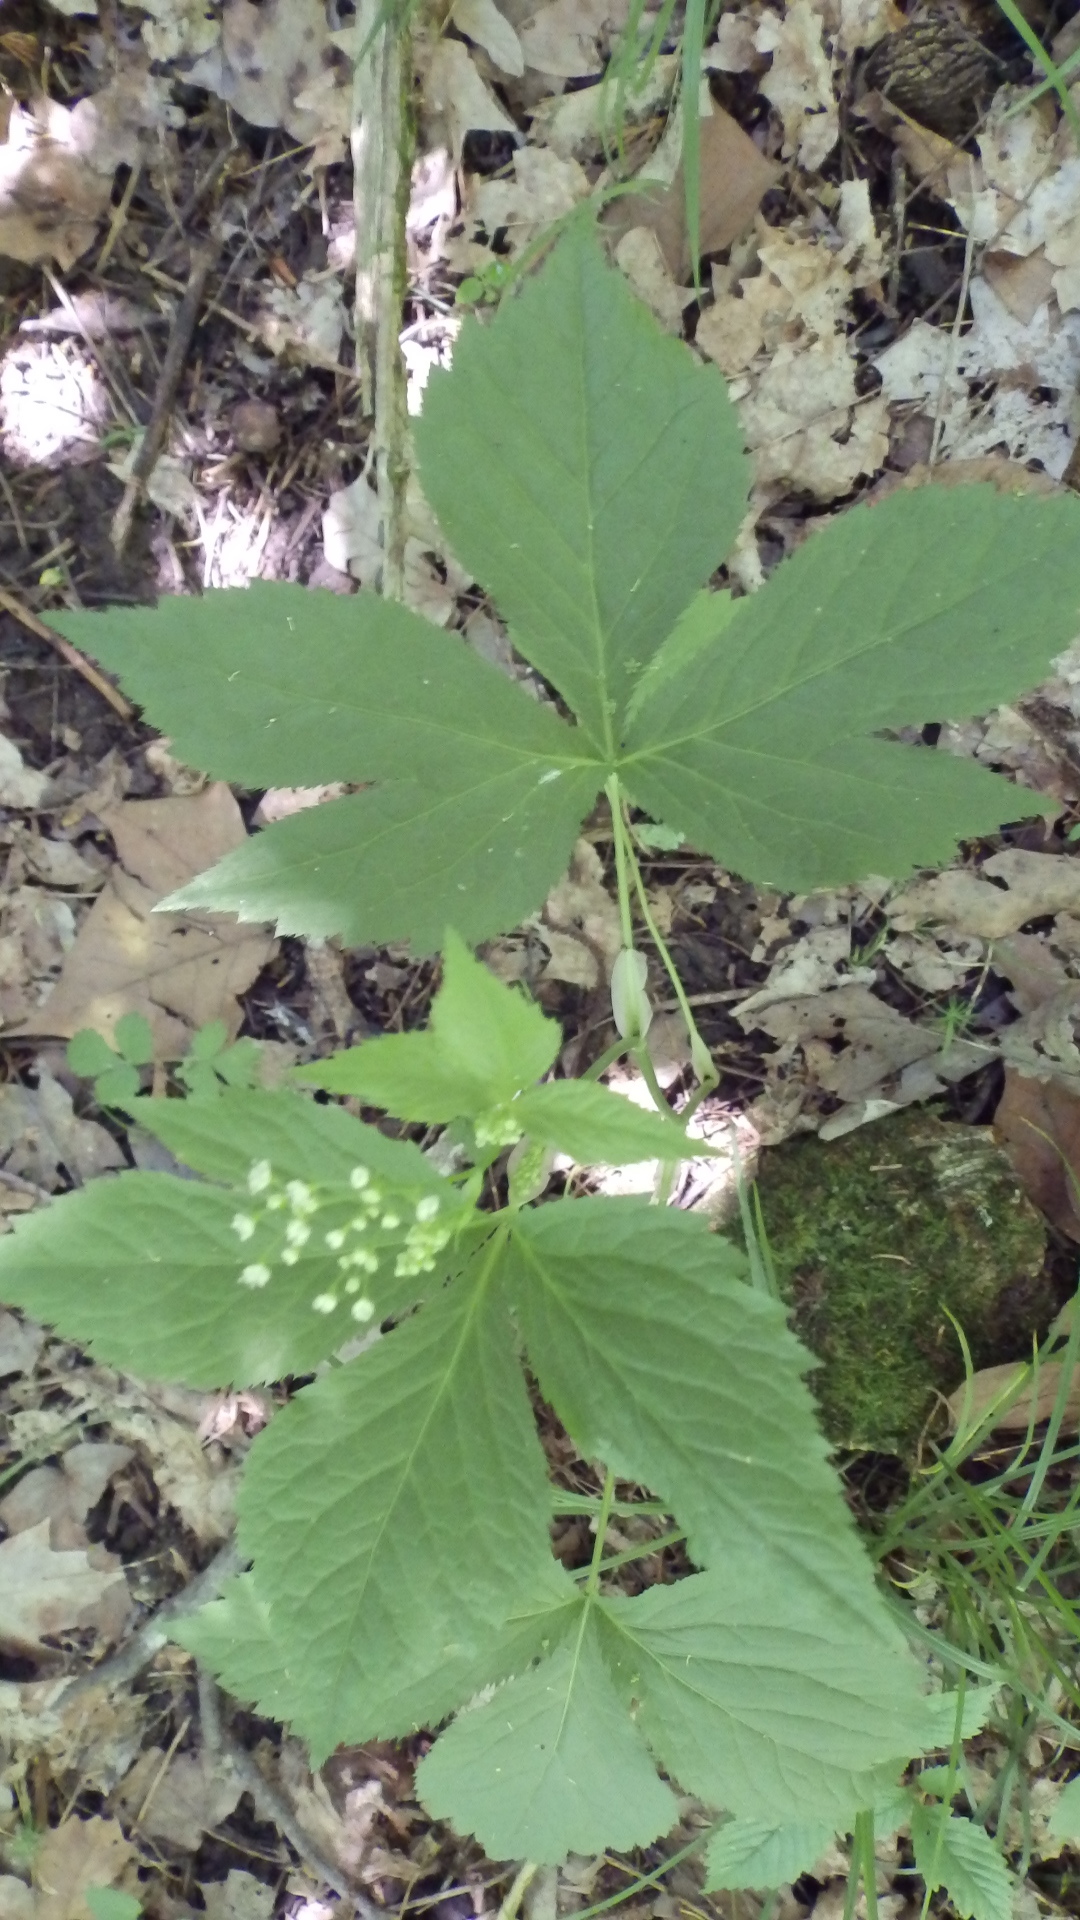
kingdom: Plantae
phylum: Tracheophyta
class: Magnoliopsida
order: Apiales
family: Apiaceae
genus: Cryptotaenia
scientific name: Cryptotaenia canadensis
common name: Honewort
